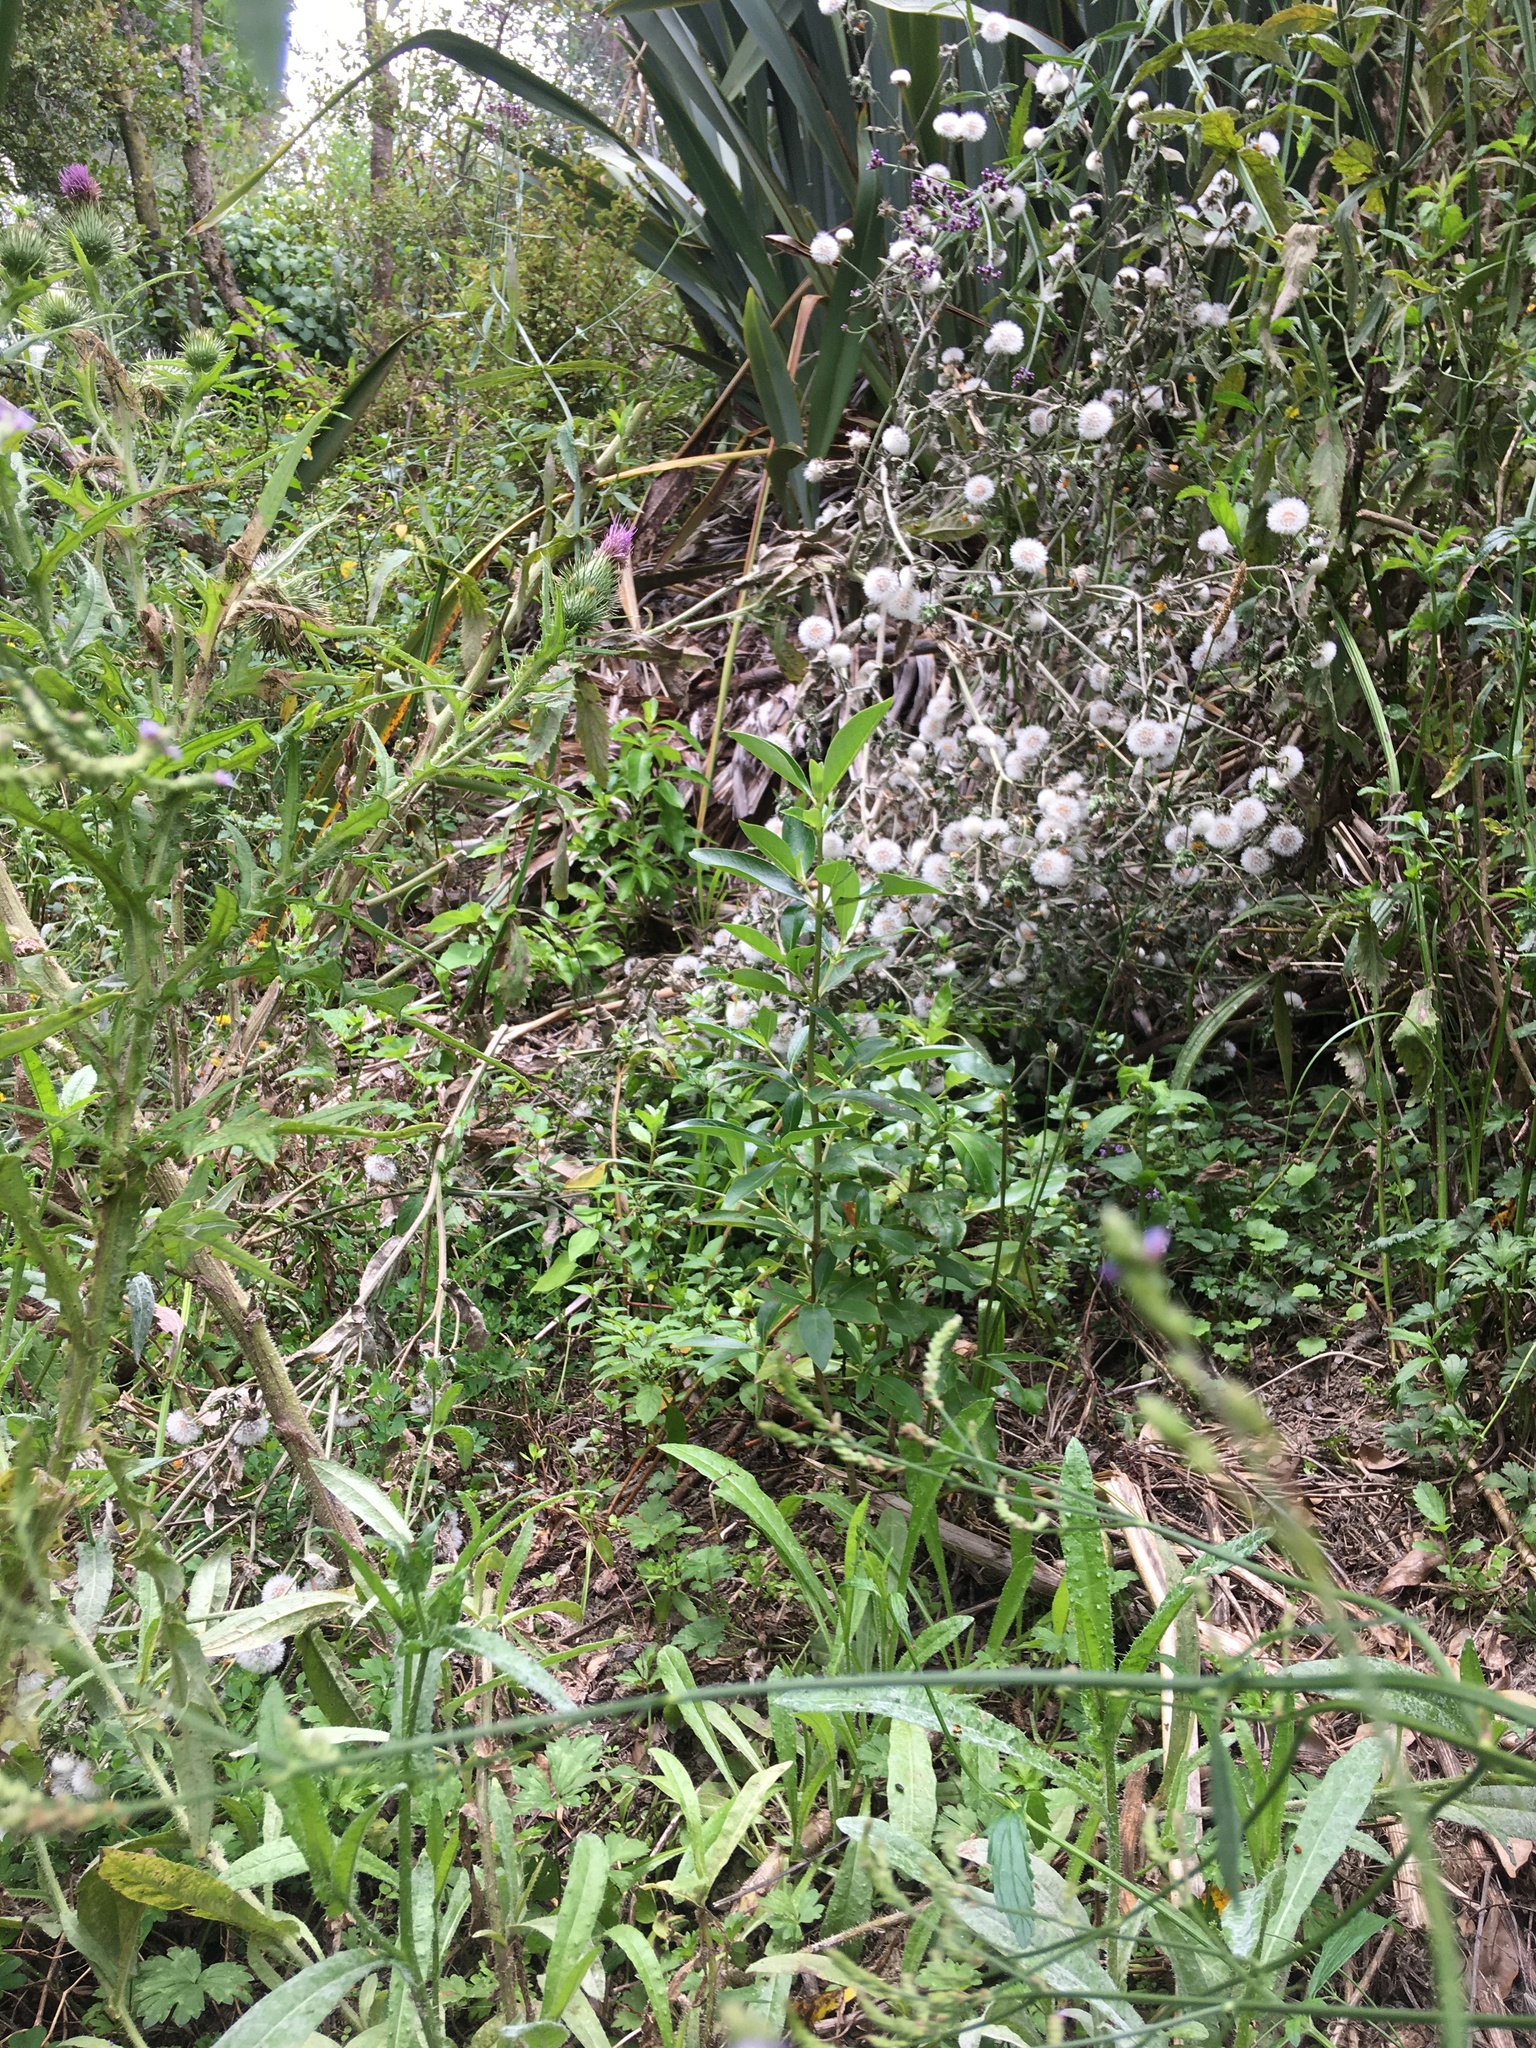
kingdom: Plantae
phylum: Tracheophyta
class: Magnoliopsida
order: Gentianales
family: Rubiaceae
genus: Coprosma
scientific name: Coprosma robusta
